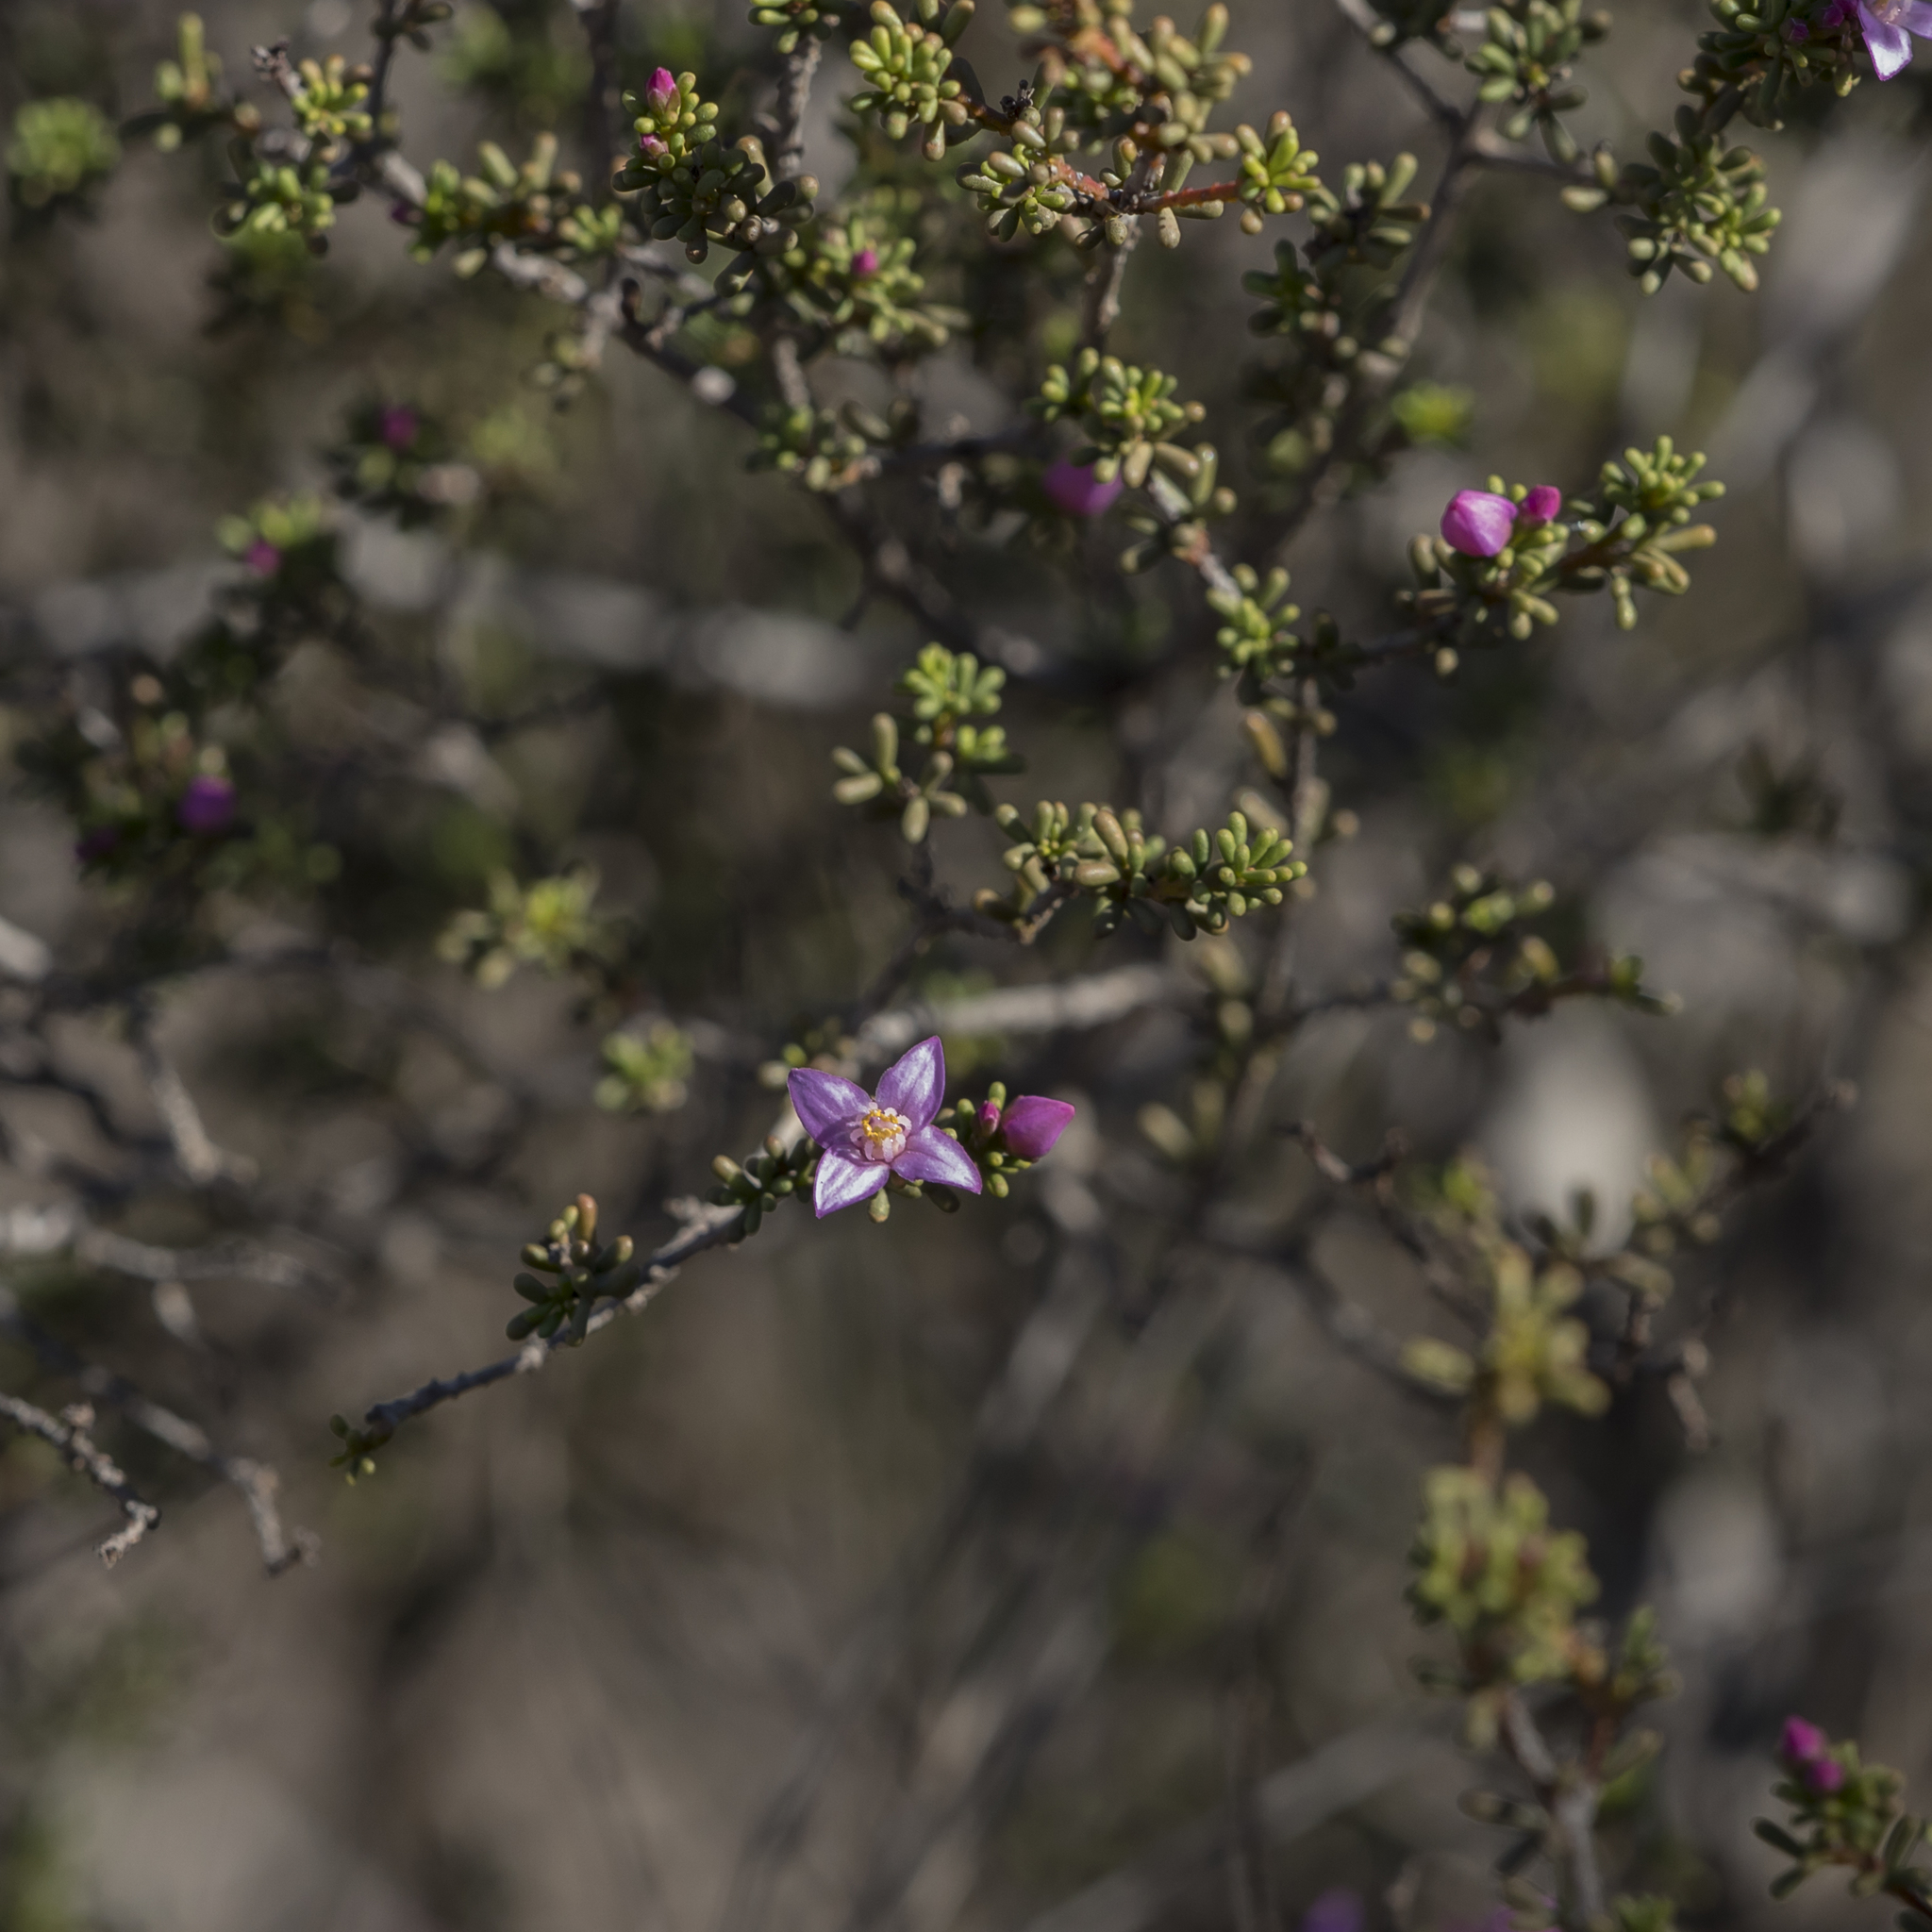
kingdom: Plantae
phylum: Tracheophyta
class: Magnoliopsida
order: Sapindales
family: Rutaceae
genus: Boronia
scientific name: Boronia inornata
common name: Desert boronia
